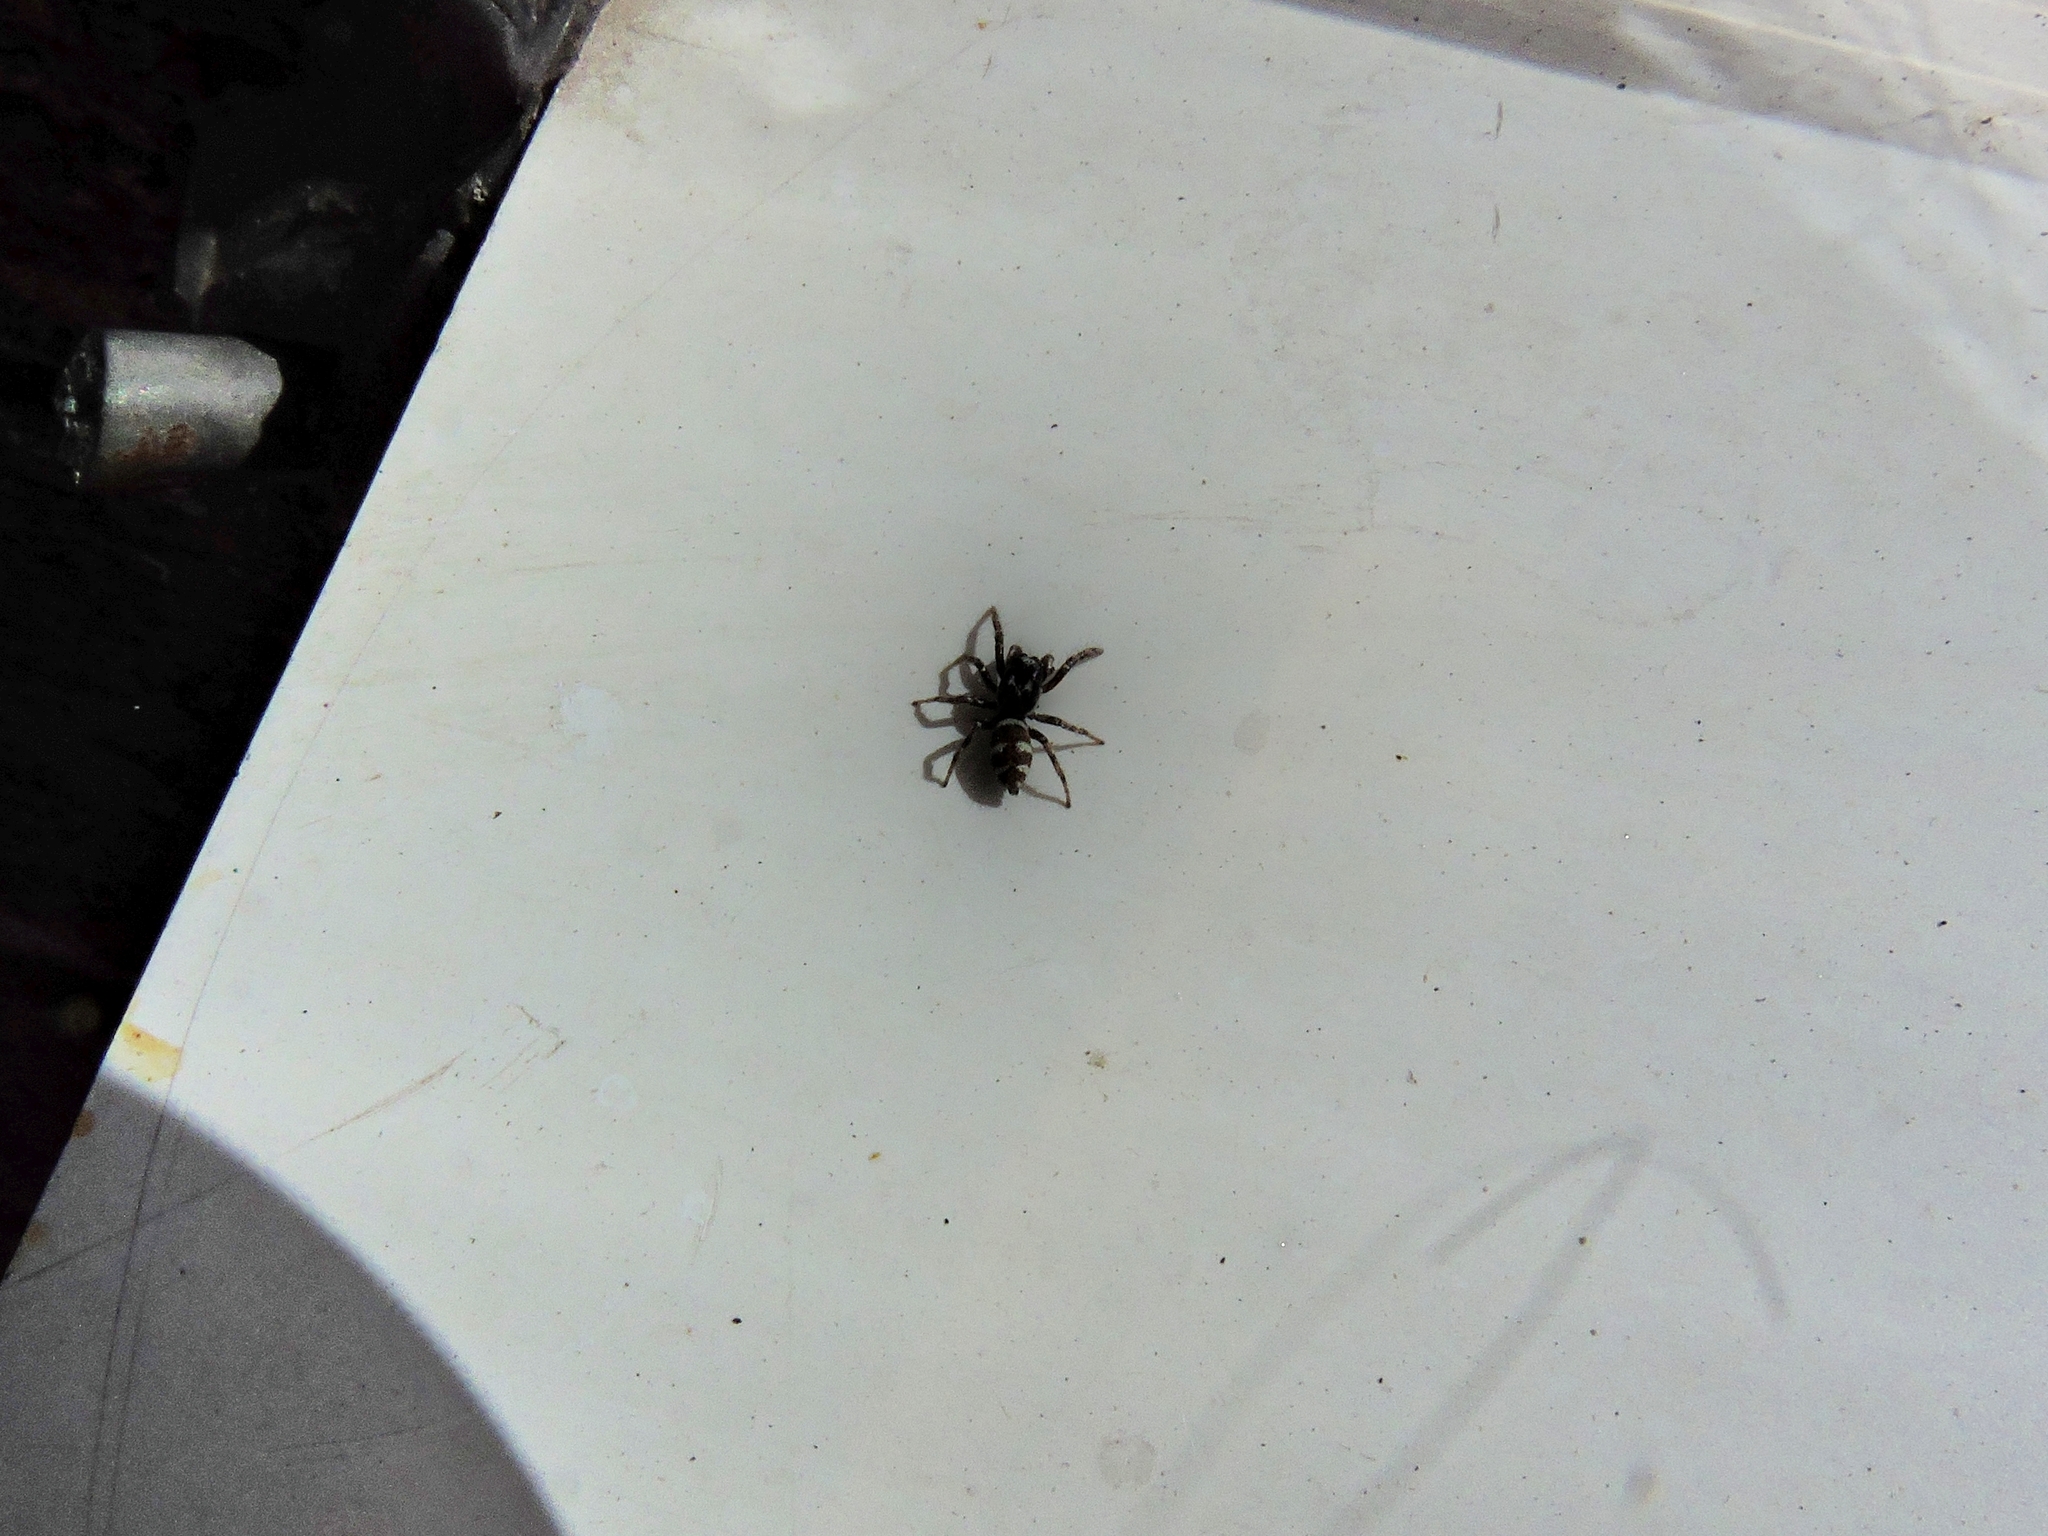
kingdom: Animalia
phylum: Arthropoda
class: Arachnida
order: Araneae
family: Salticidae
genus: Salticus
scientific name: Salticus scenicus
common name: Zebra jumper
